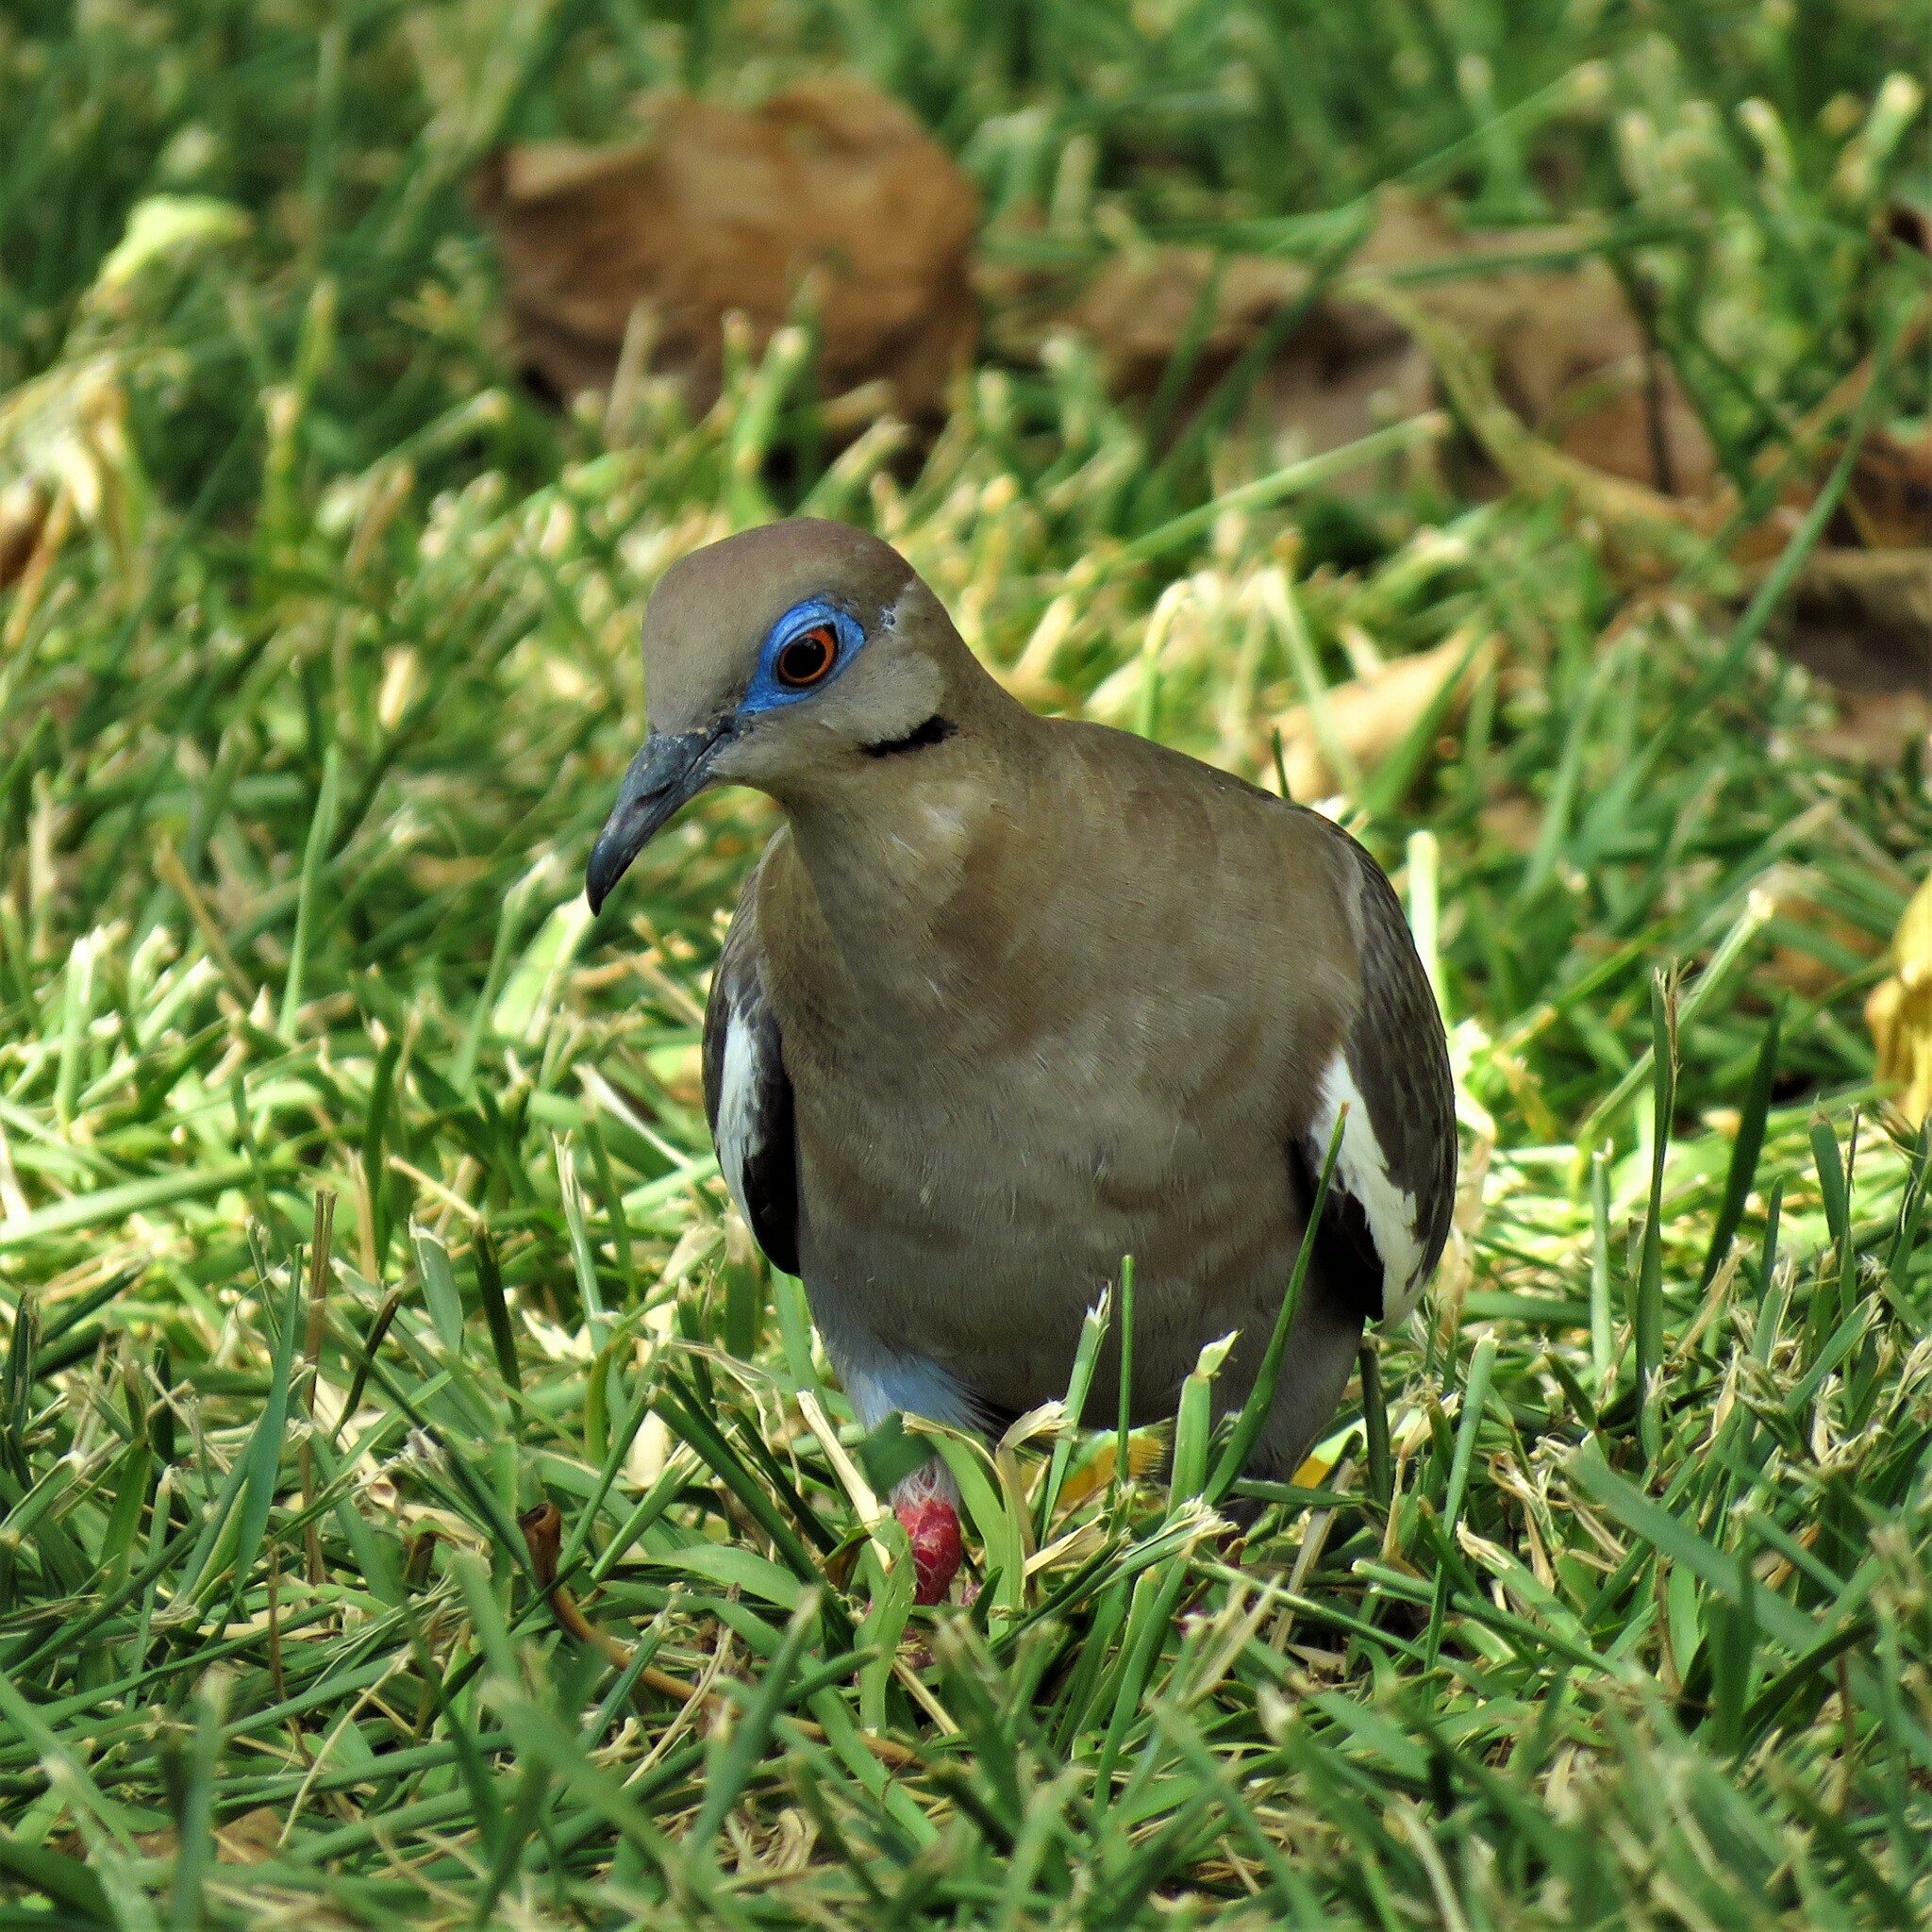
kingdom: Animalia
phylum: Chordata
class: Aves
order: Columbiformes
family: Columbidae
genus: Zenaida
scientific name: Zenaida asiatica
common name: White-winged dove
